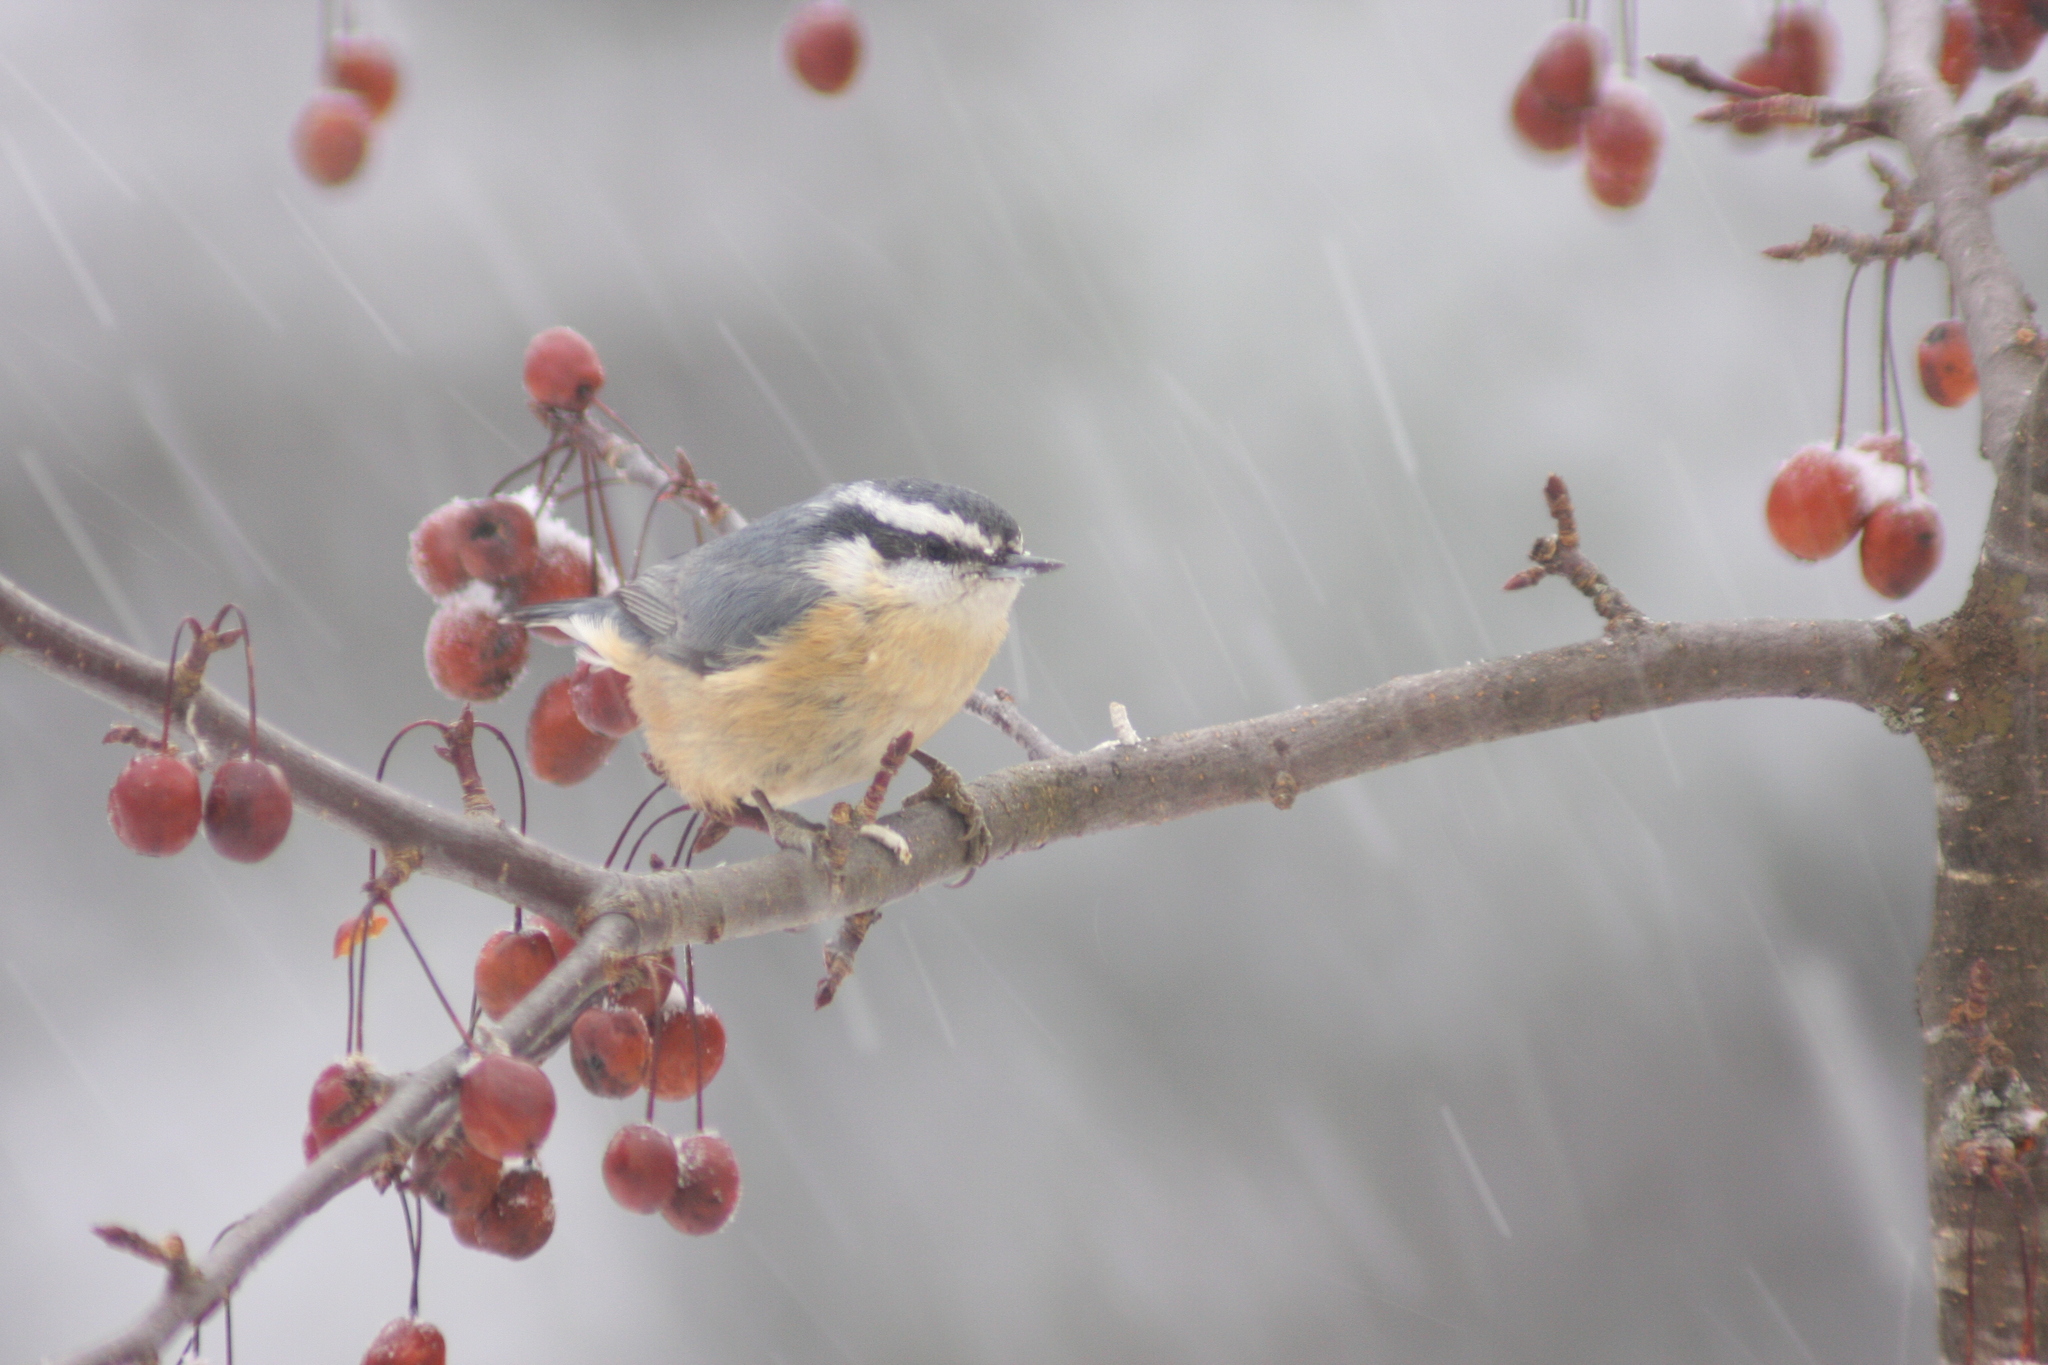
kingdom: Animalia
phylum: Chordata
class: Aves
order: Passeriformes
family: Sittidae
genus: Sitta
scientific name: Sitta canadensis
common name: Red-breasted nuthatch
